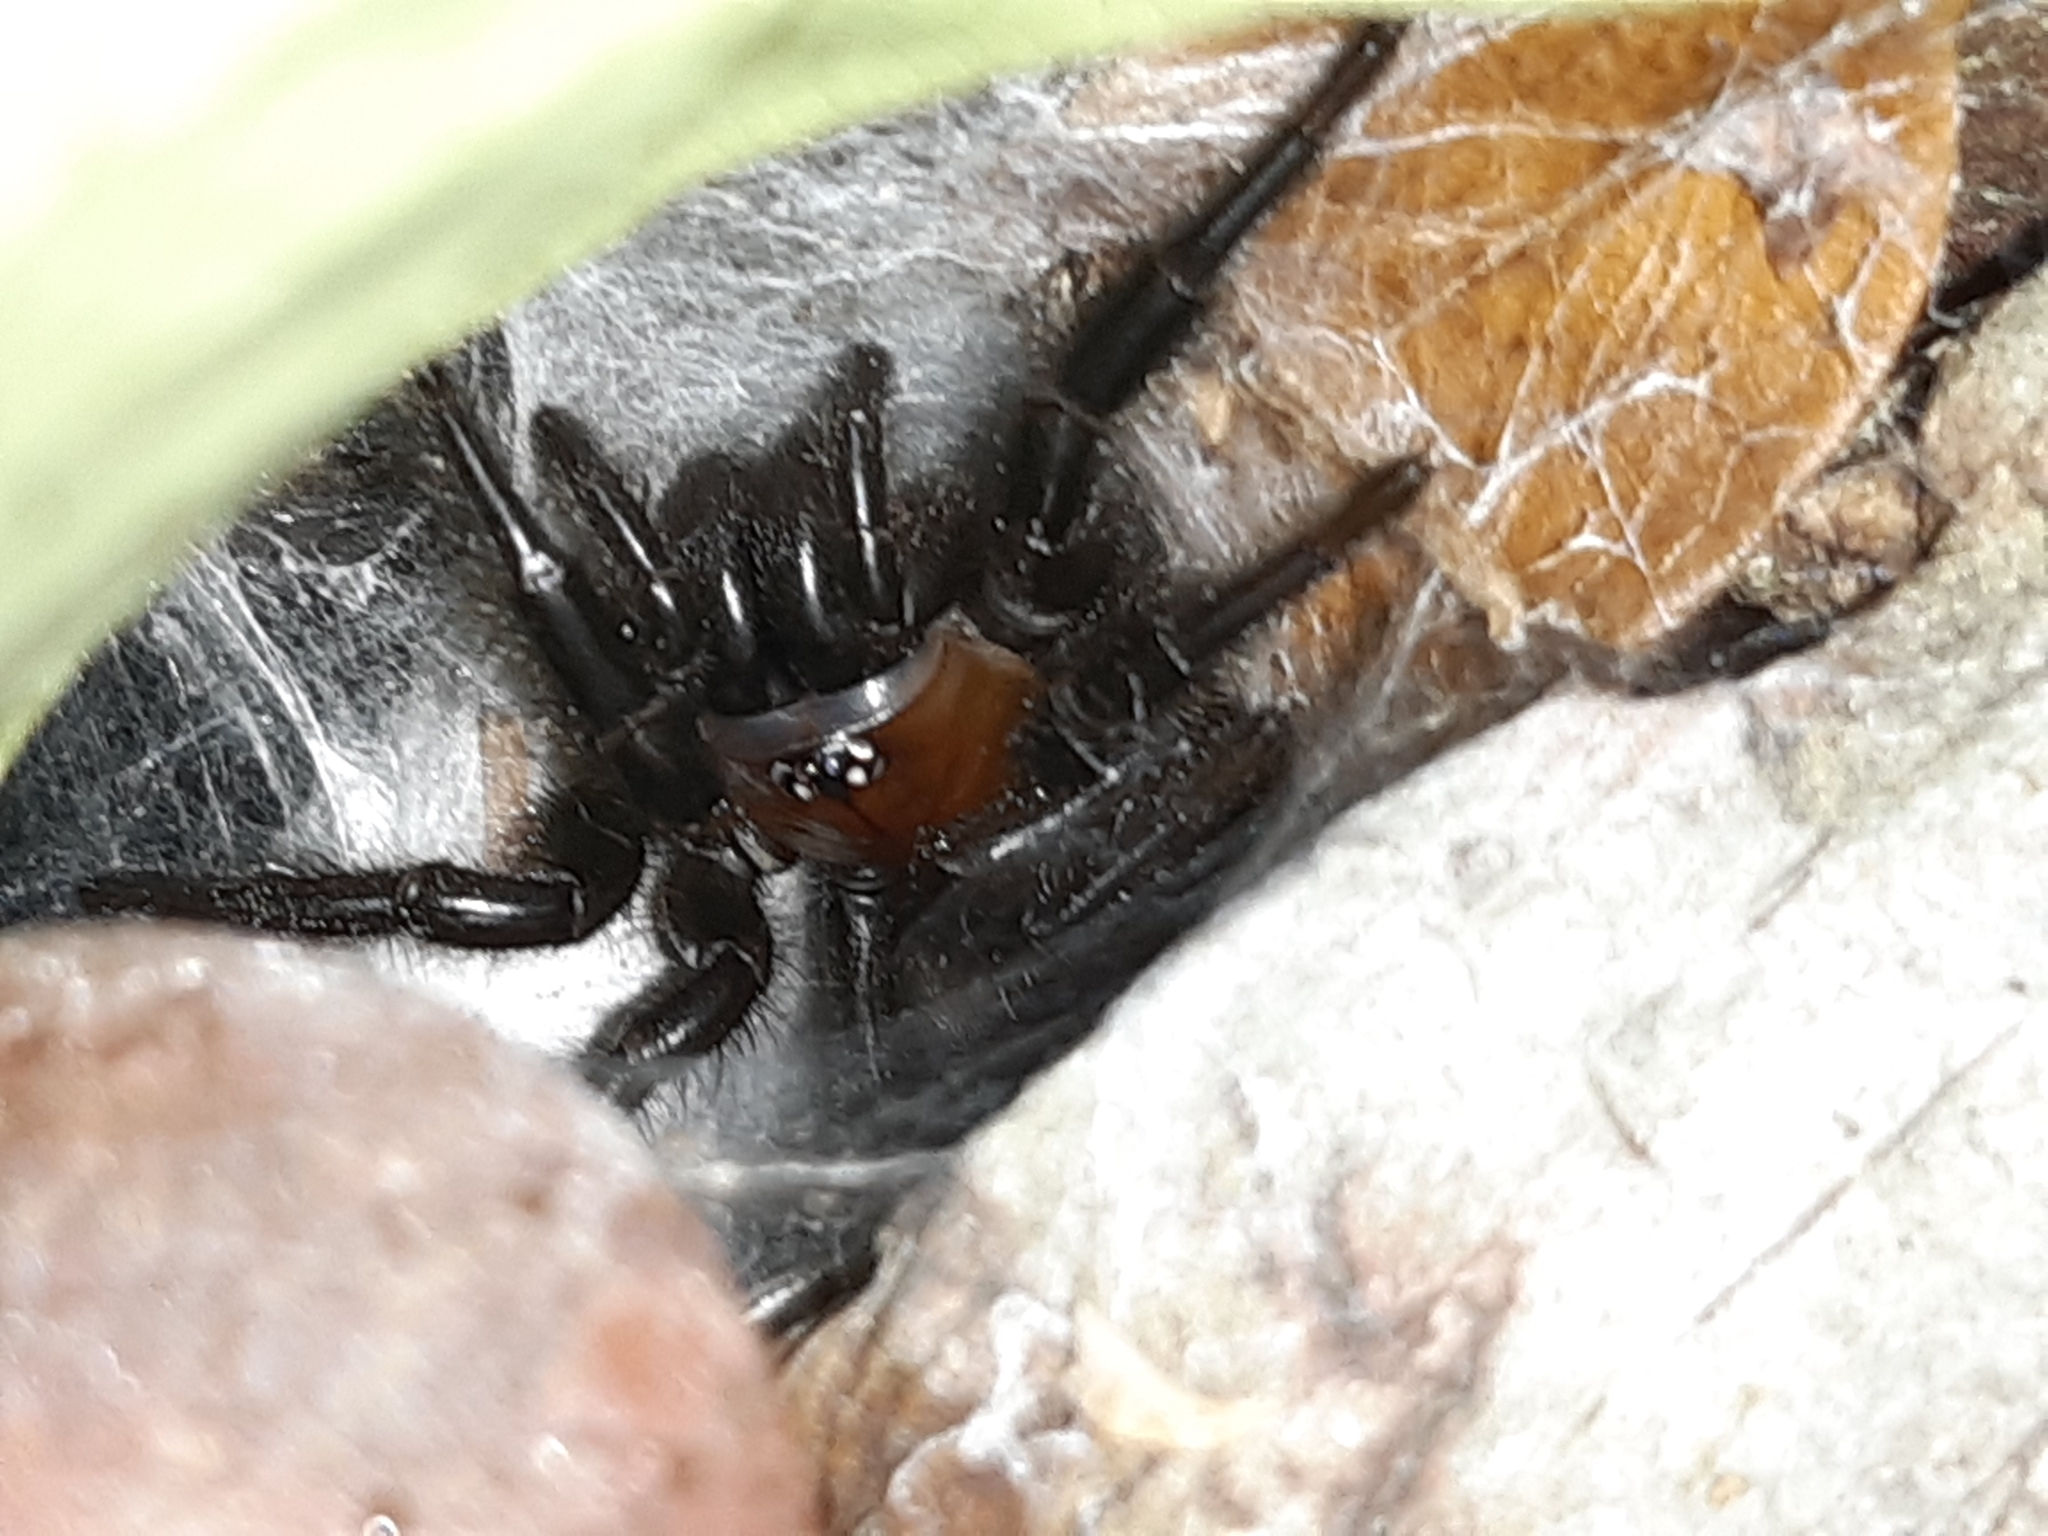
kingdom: Animalia
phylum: Arthropoda
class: Arachnida
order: Araneae
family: Porrhothelidae
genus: Porrhothele
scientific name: Porrhothele antipodiana
